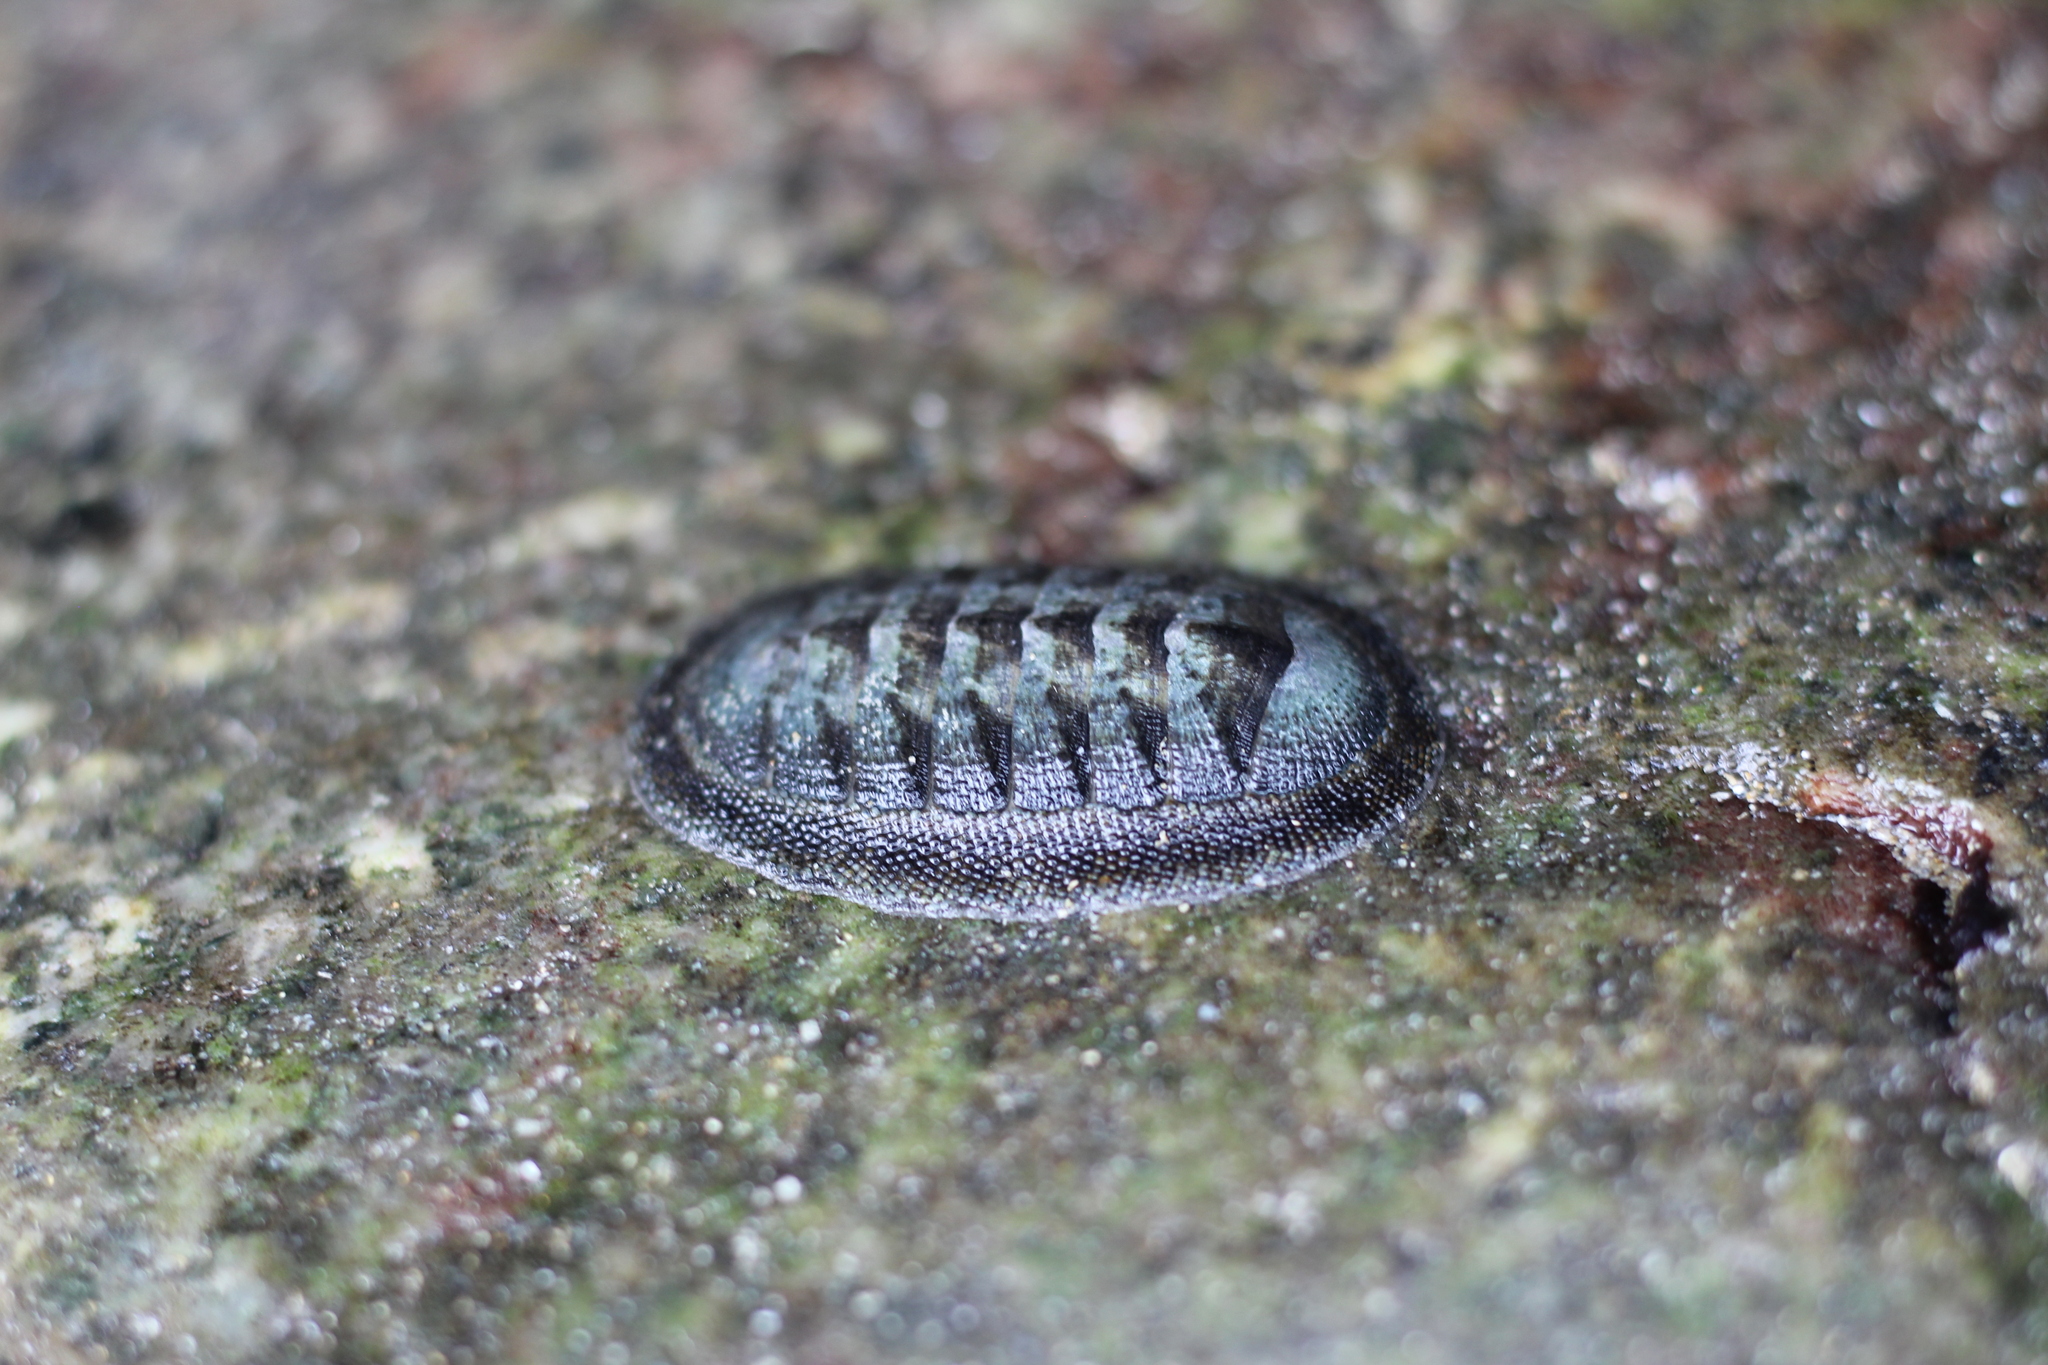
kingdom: Animalia
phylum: Mollusca
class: Polyplacophora
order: Chitonida
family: Chitonidae
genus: Chiton
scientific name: Chiton cumingsii
